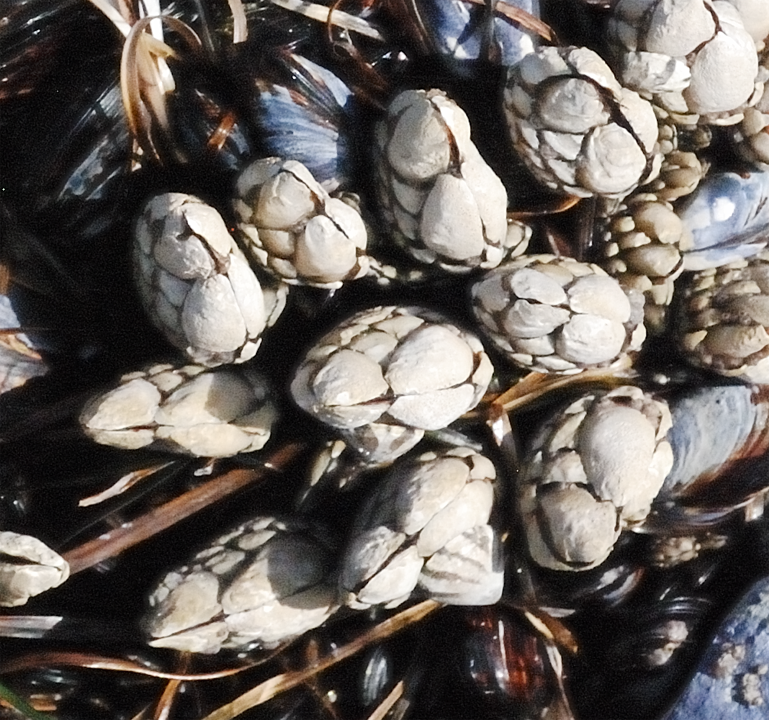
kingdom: Animalia
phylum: Arthropoda
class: Maxillopoda
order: Pedunculata
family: Pollicipedidae
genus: Pollicipes
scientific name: Pollicipes polymerus
